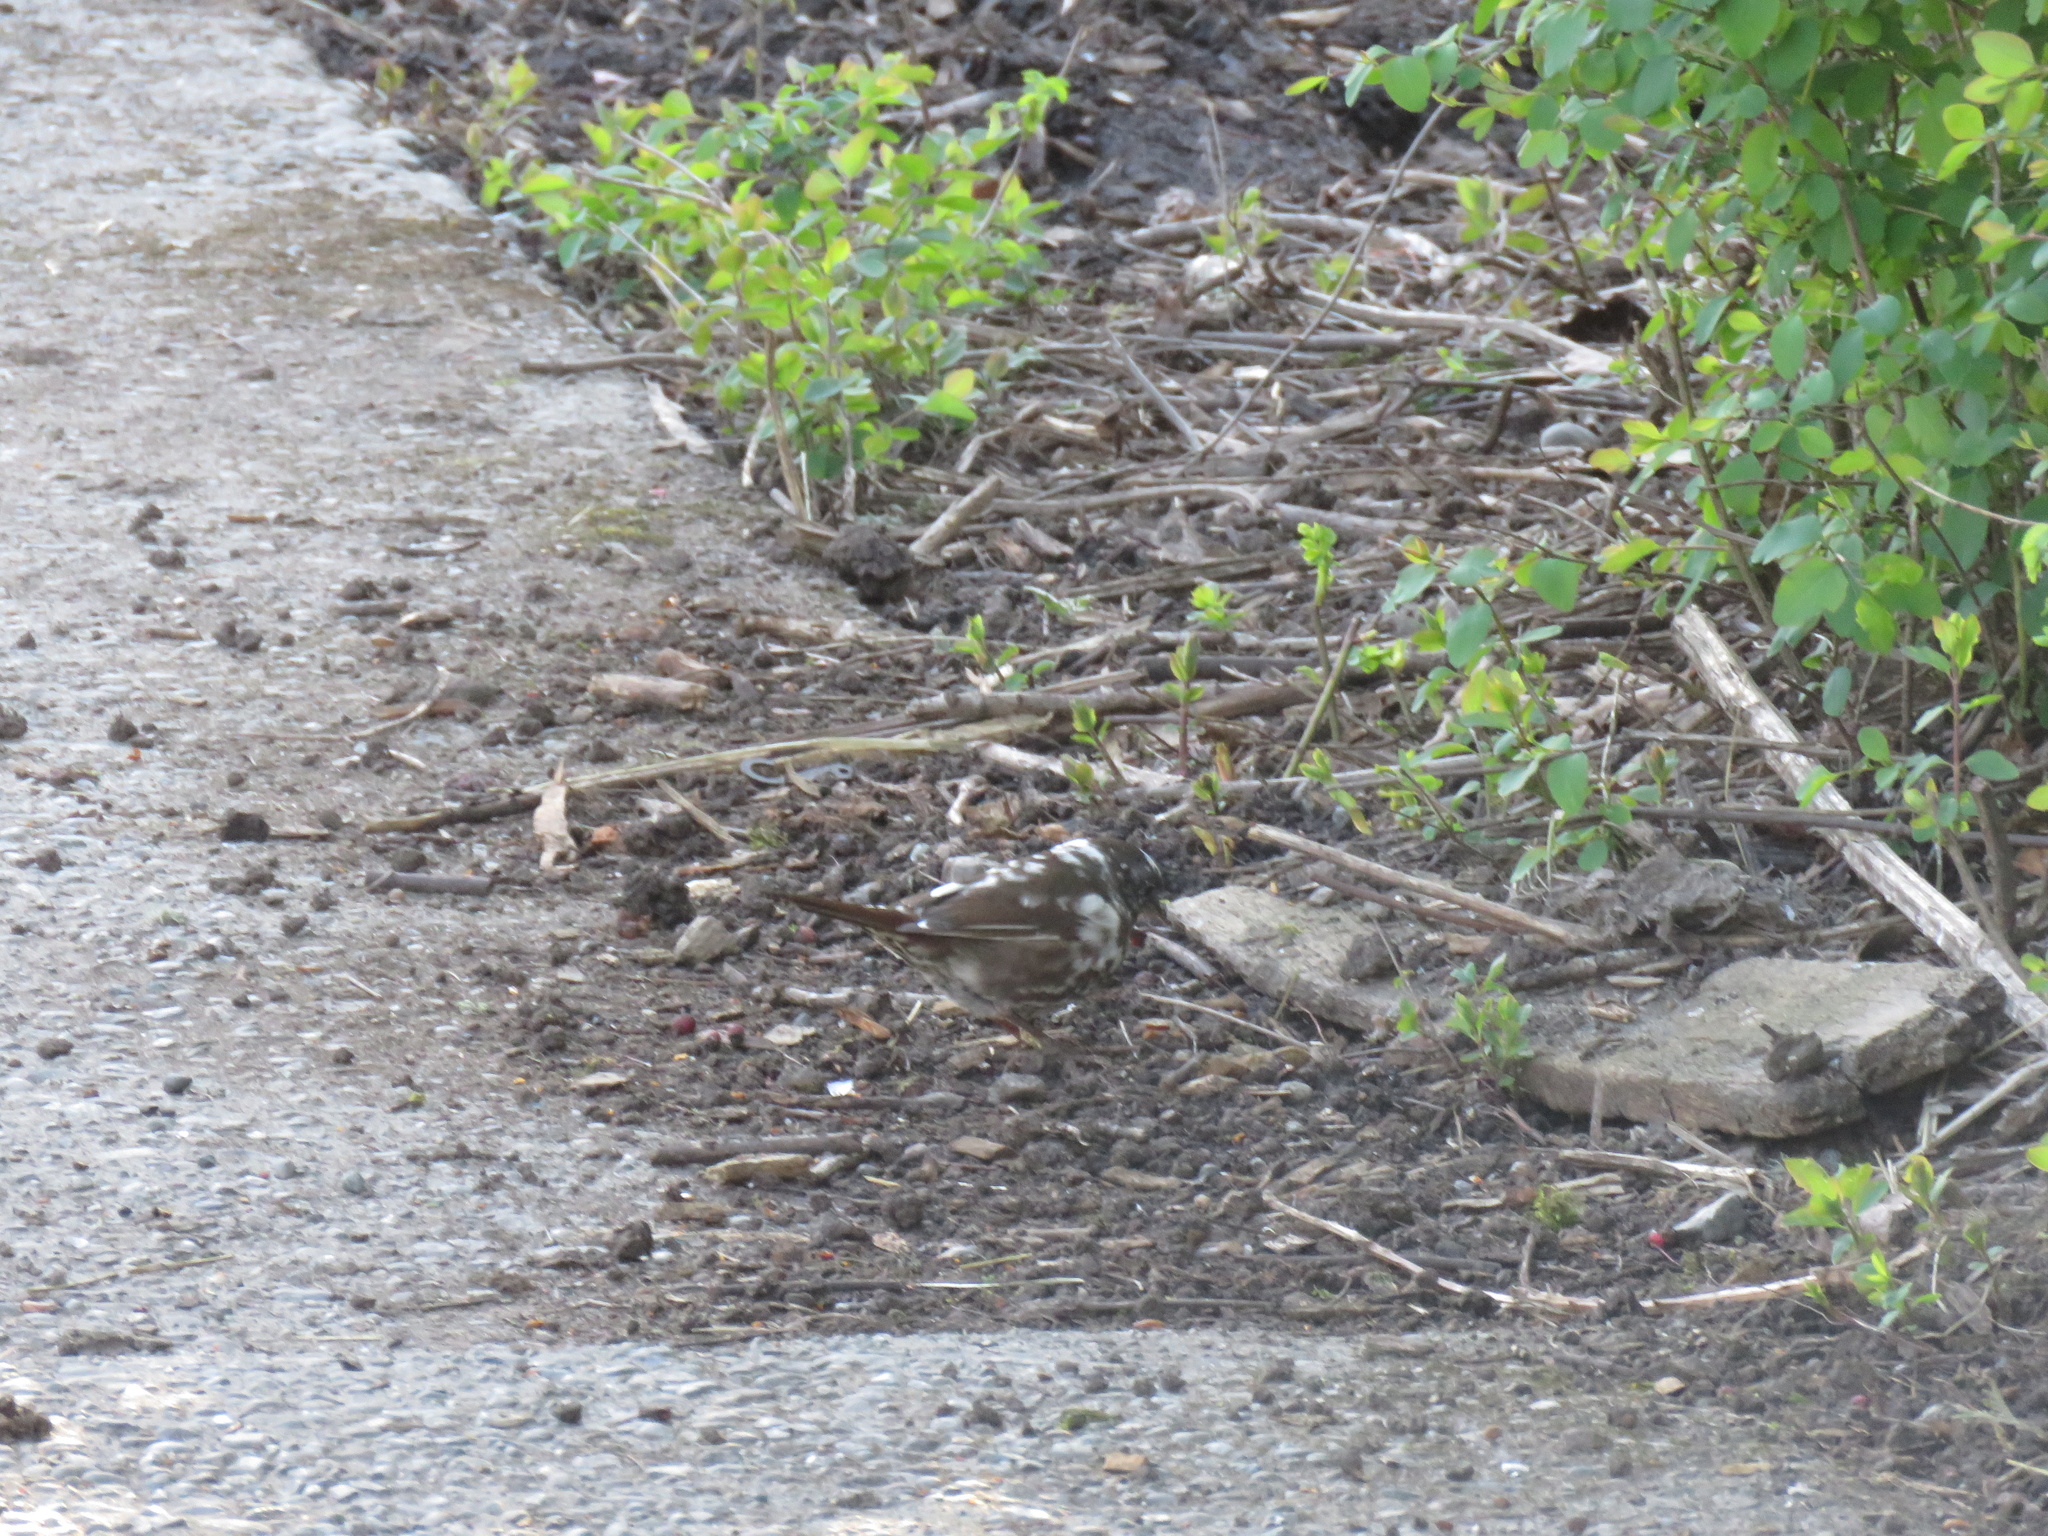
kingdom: Animalia
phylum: Chordata
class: Aves
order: Passeriformes
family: Passerellidae
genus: Passerella
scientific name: Passerella iliaca
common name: Fox sparrow
